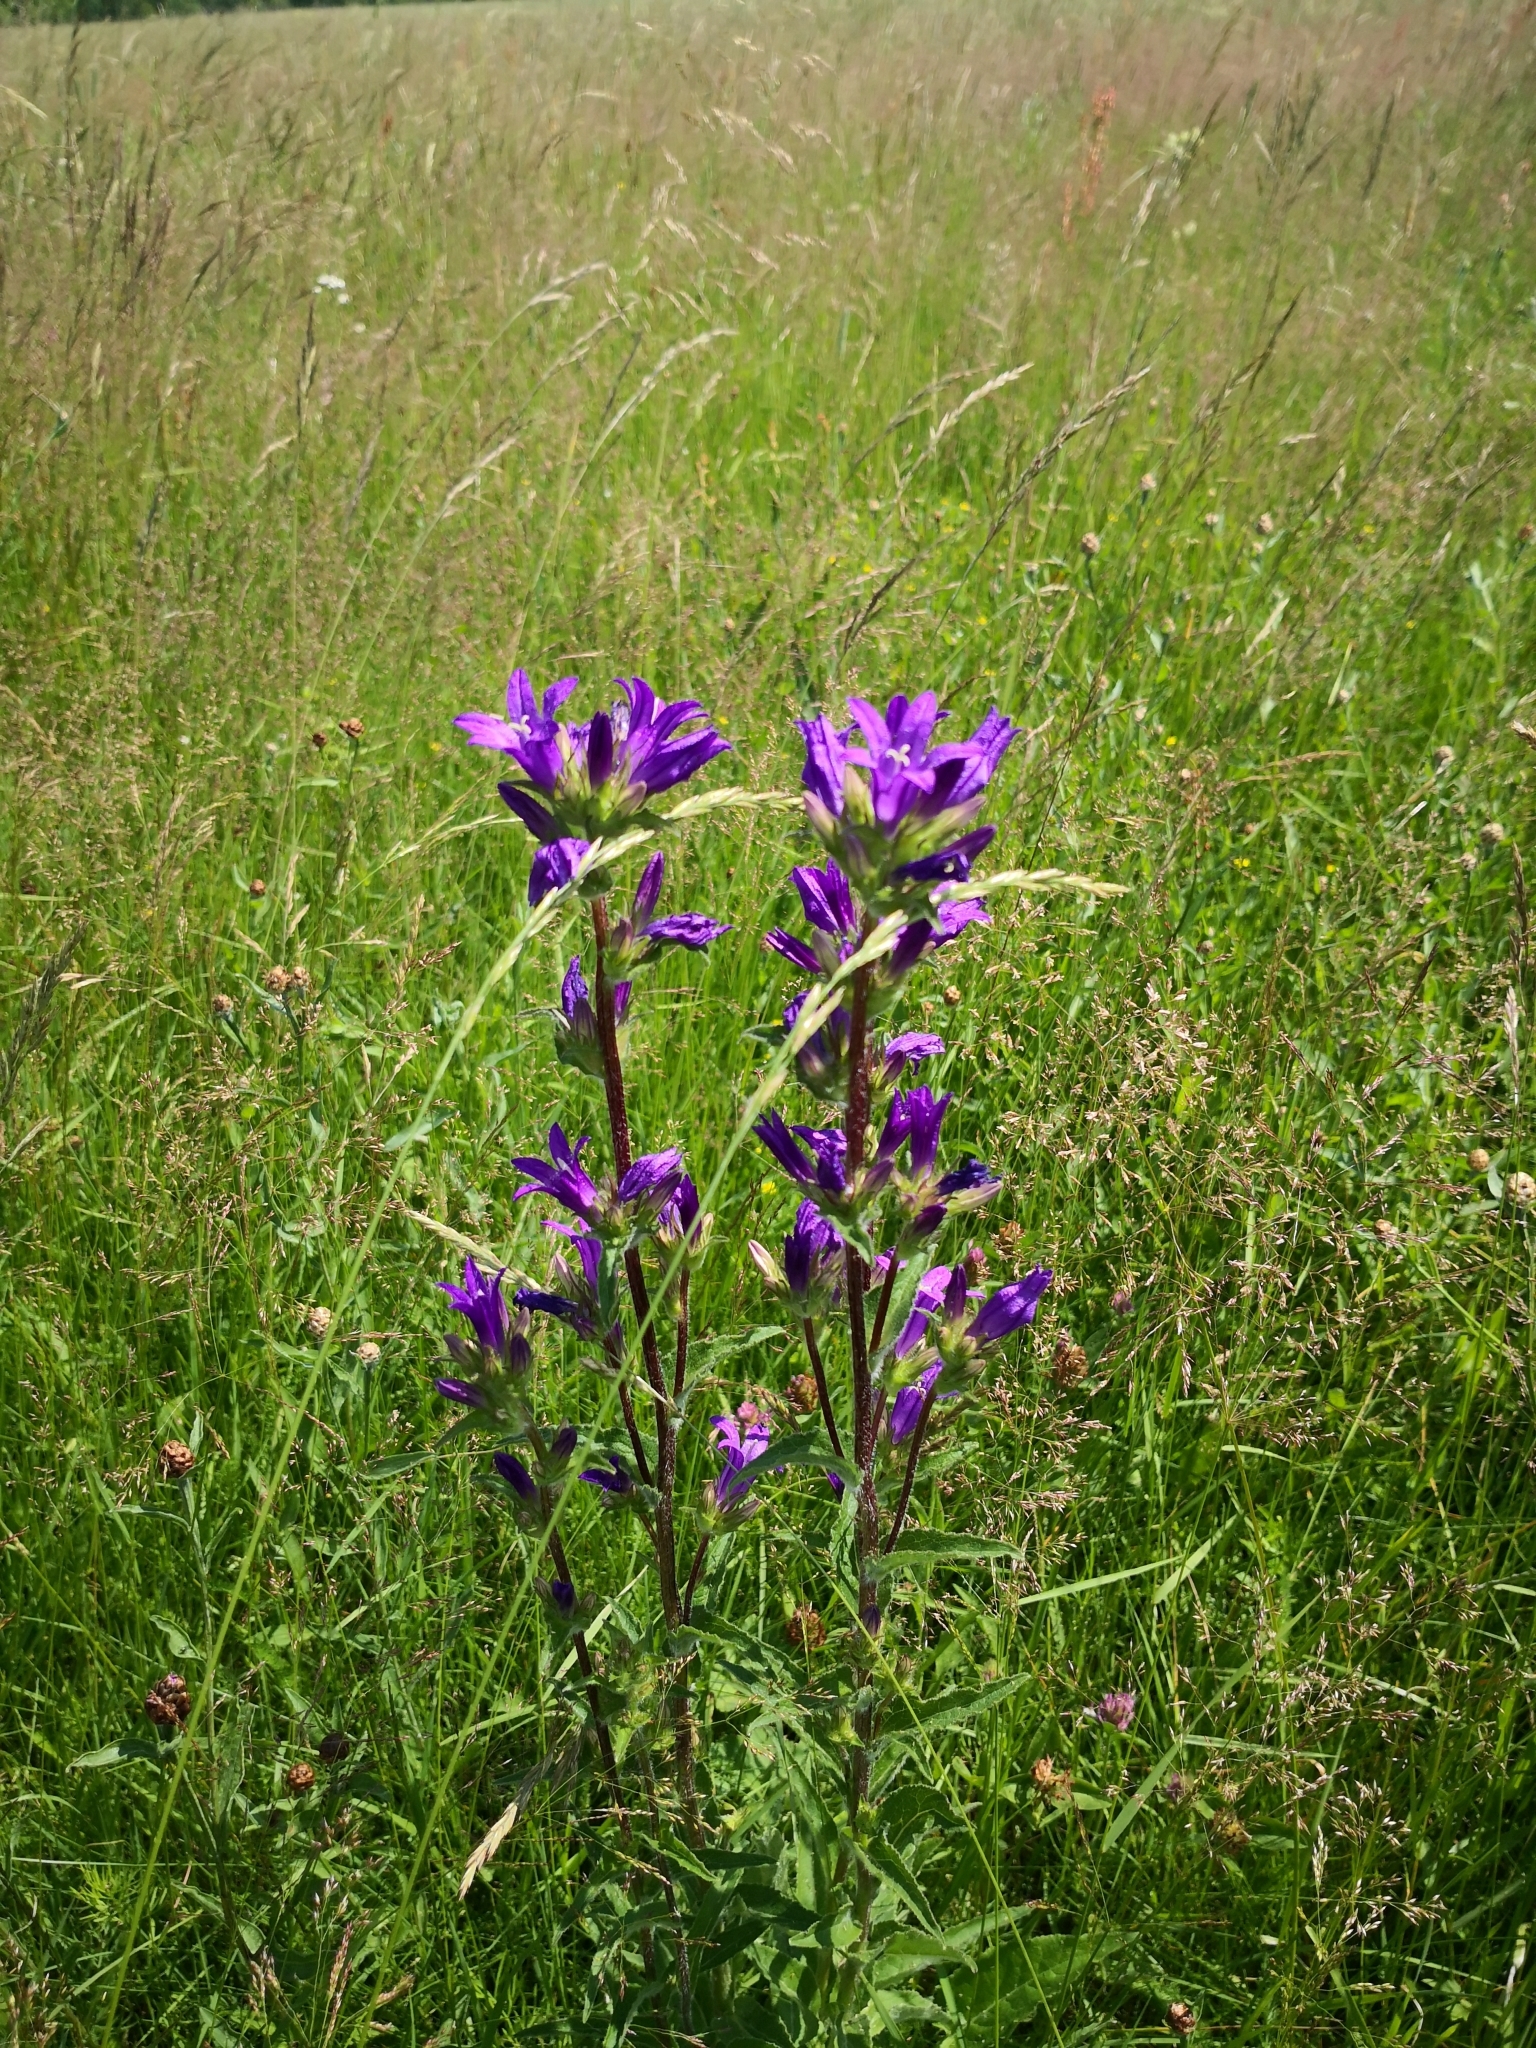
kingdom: Plantae
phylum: Tracheophyta
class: Magnoliopsida
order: Asterales
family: Campanulaceae
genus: Campanula
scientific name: Campanula glomerata
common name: Clustered bellflower
